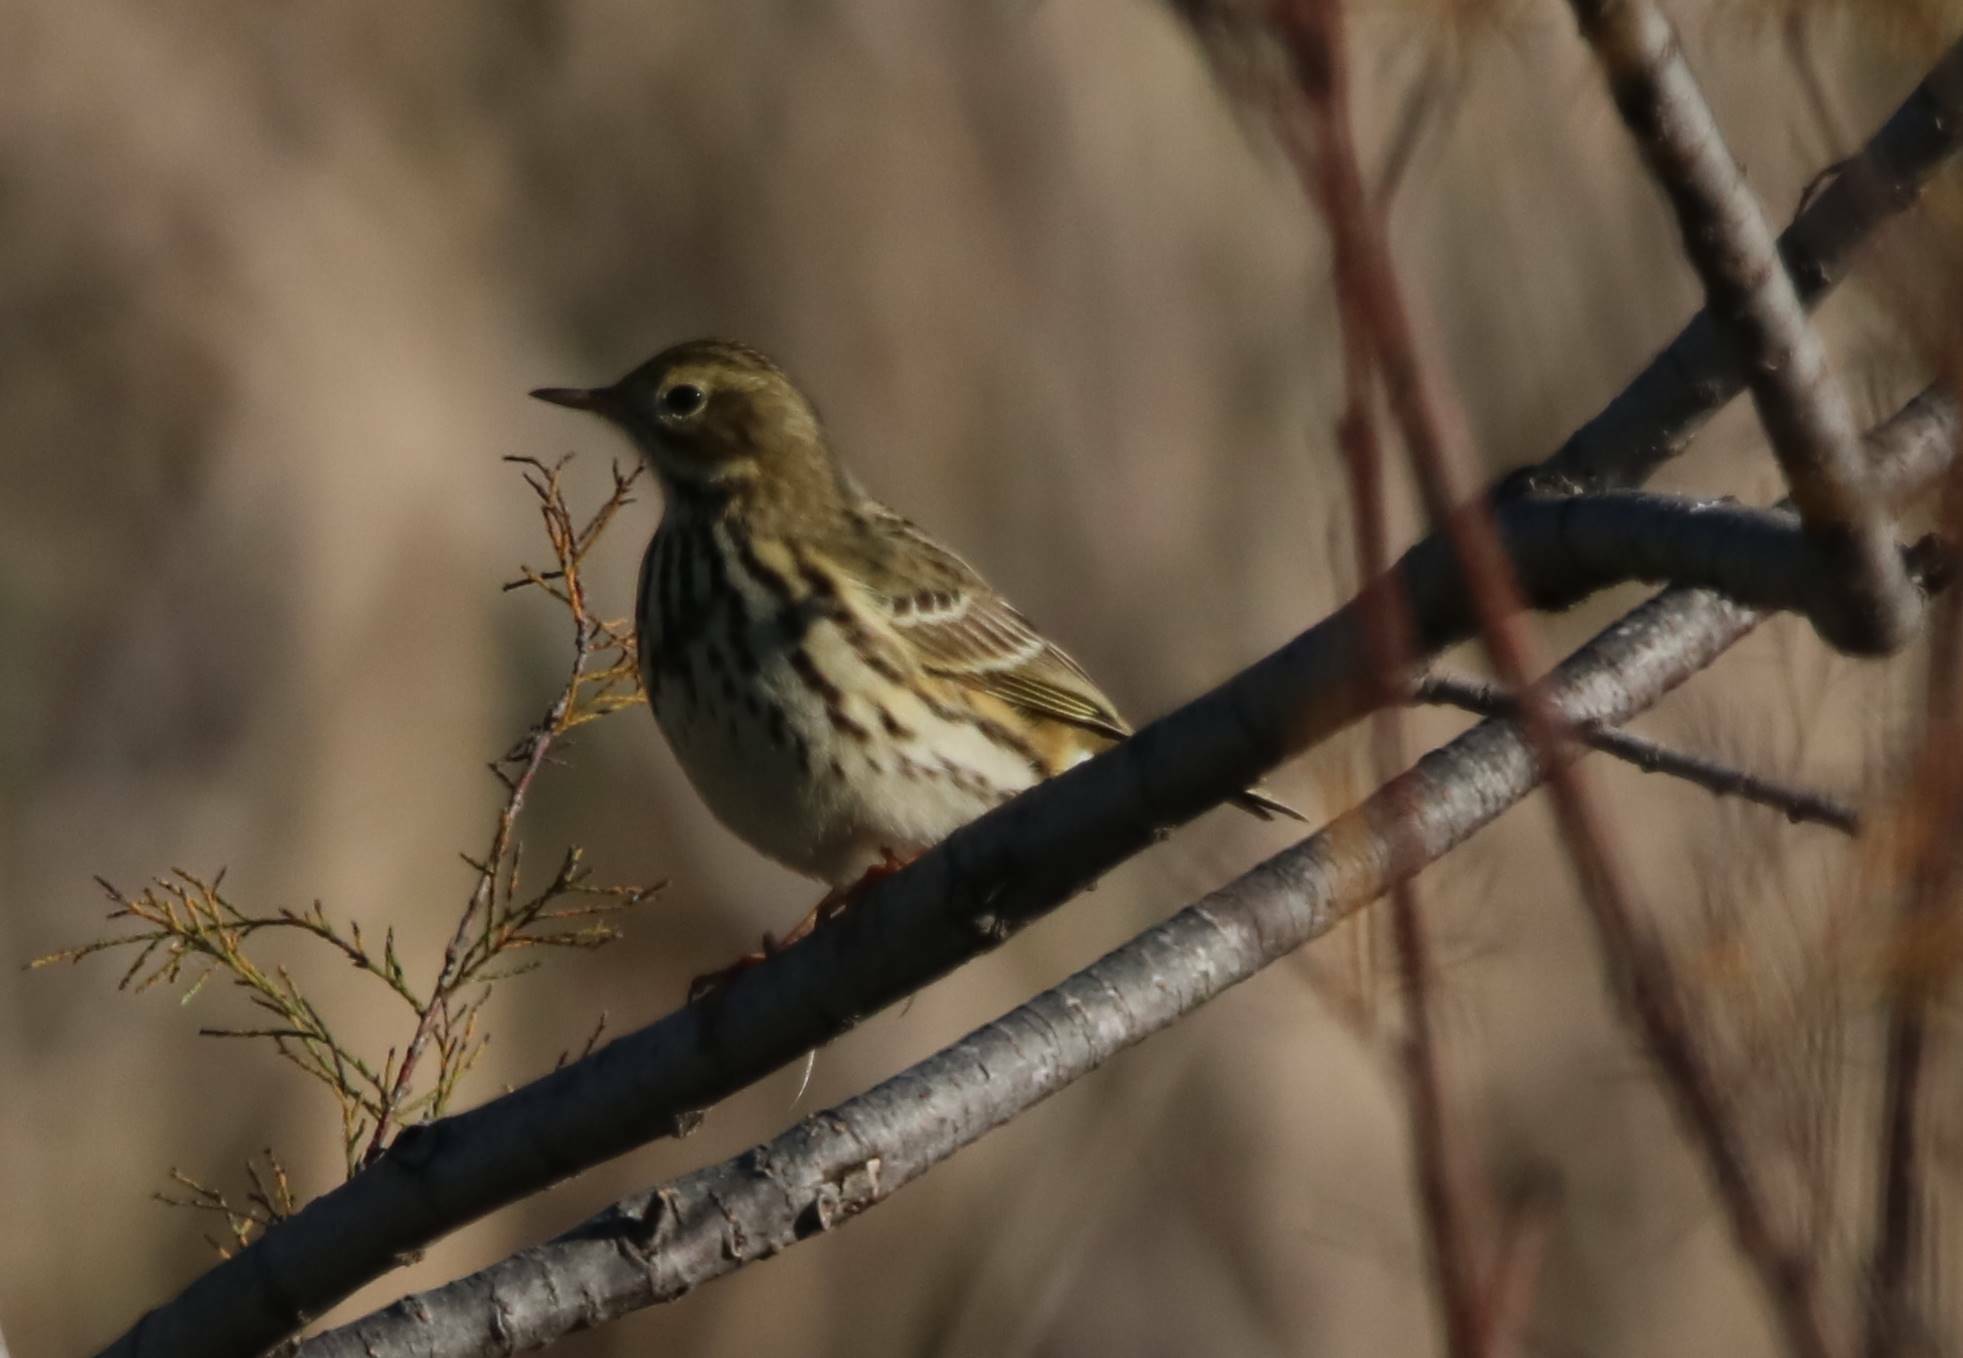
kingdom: Animalia
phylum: Chordata
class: Aves
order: Passeriformes
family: Motacillidae
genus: Anthus
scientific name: Anthus pratensis
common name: Meadow pipit
